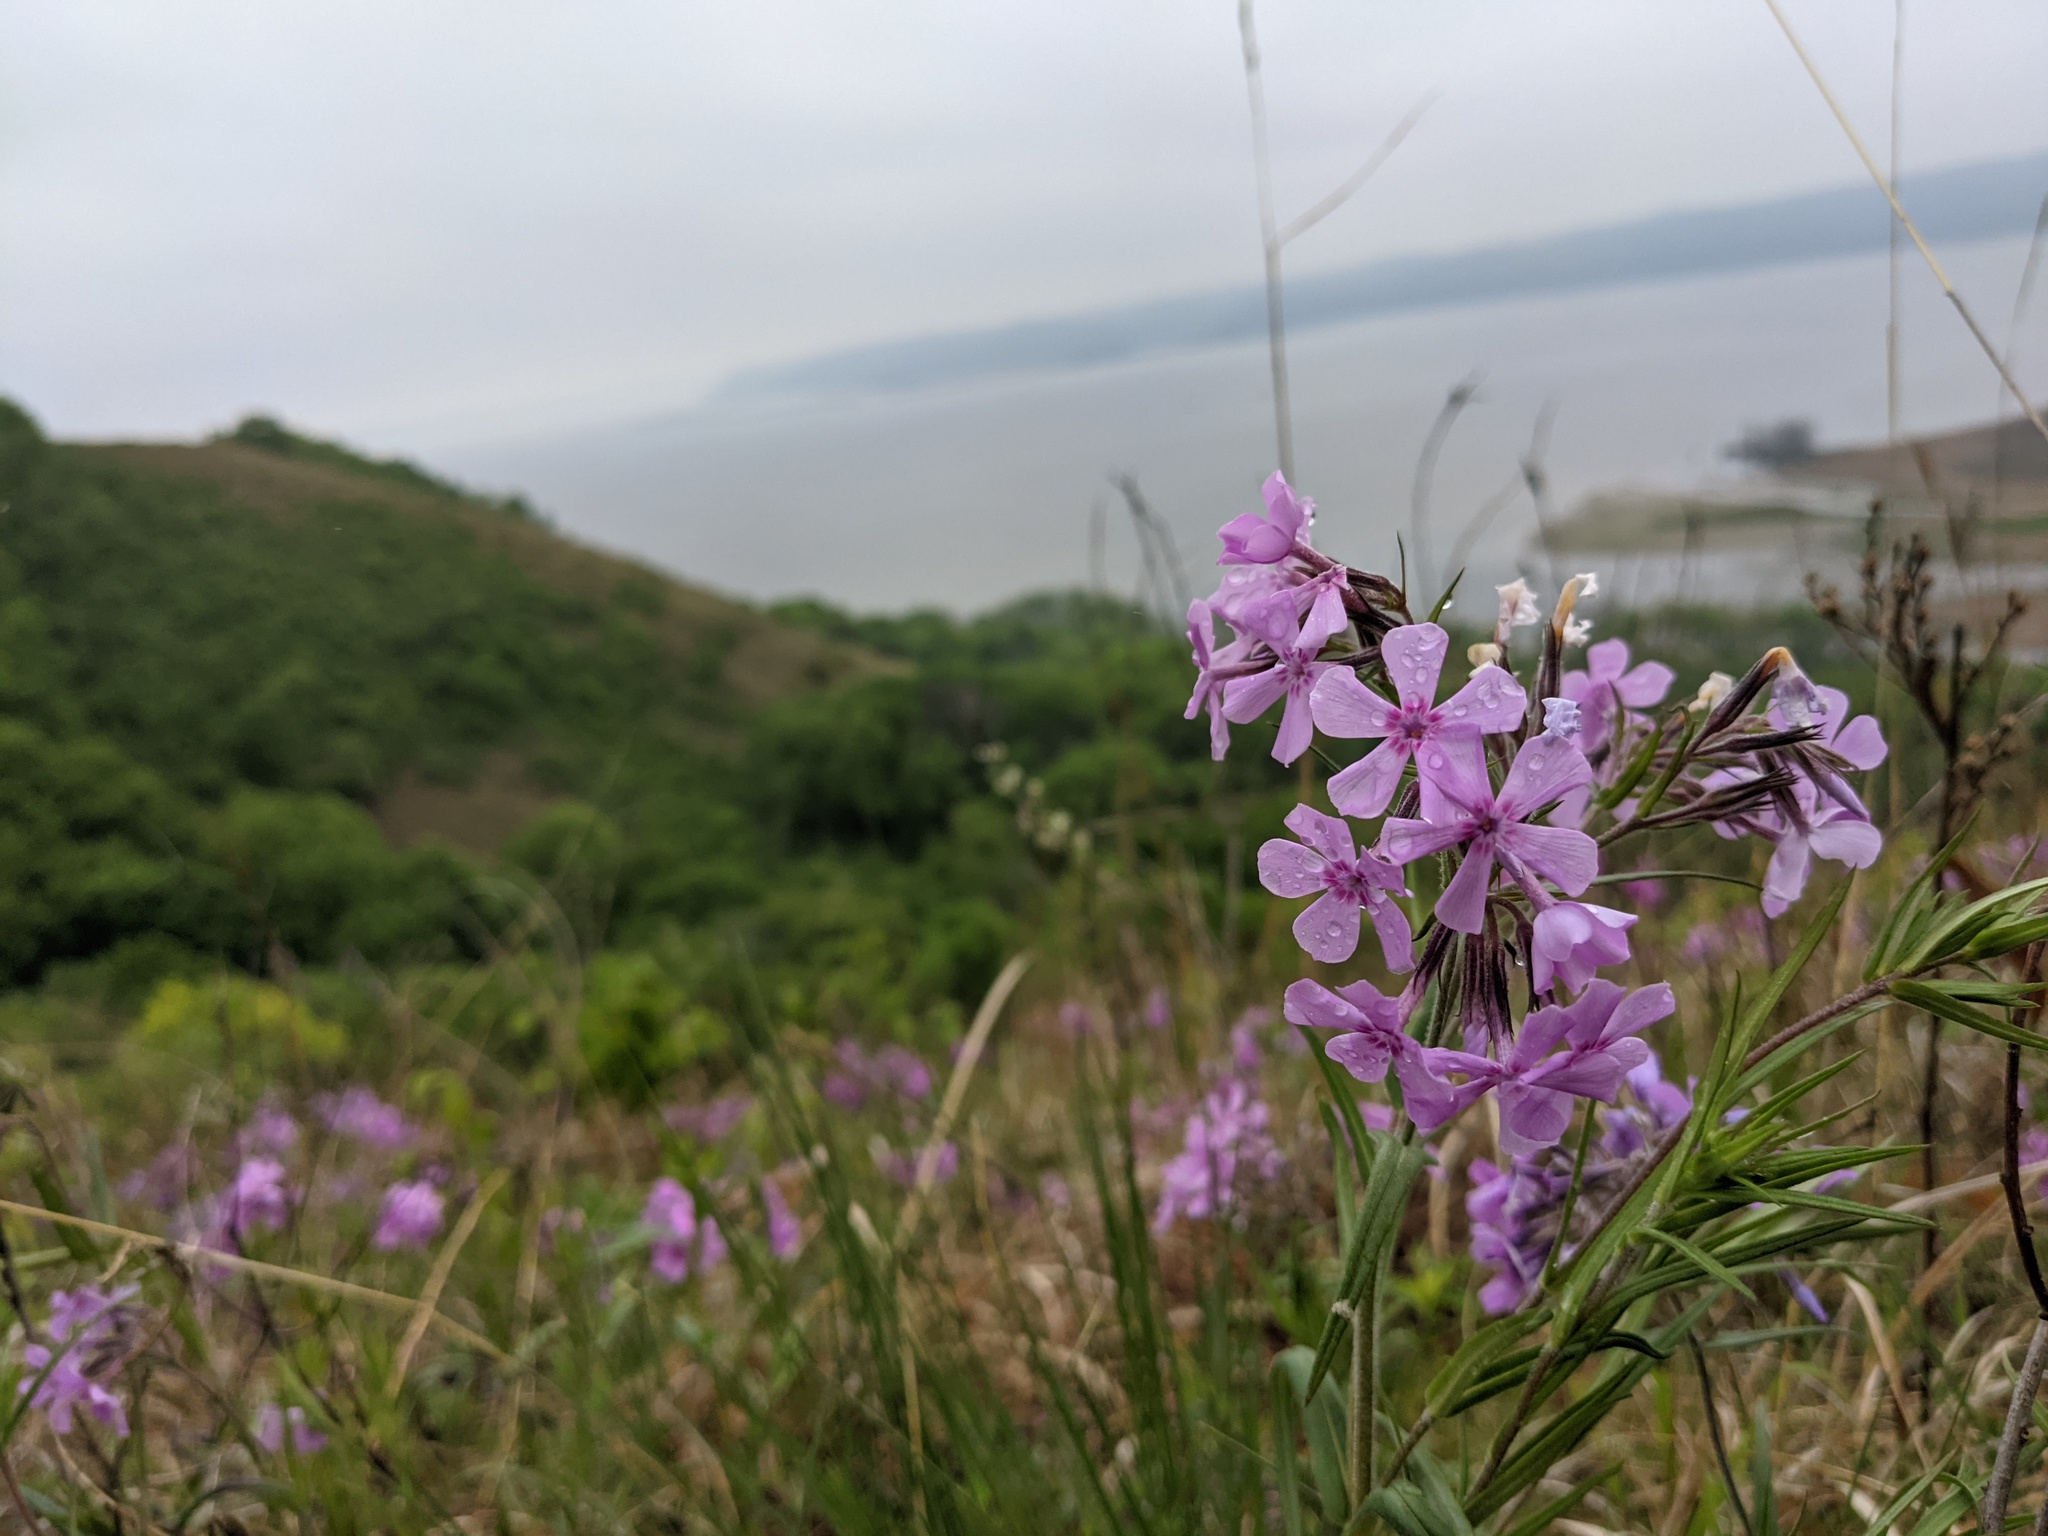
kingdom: Plantae
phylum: Tracheophyta
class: Magnoliopsida
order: Ericales
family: Polemoniaceae
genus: Phlox
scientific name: Phlox pilosa
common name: Prairie phlox
